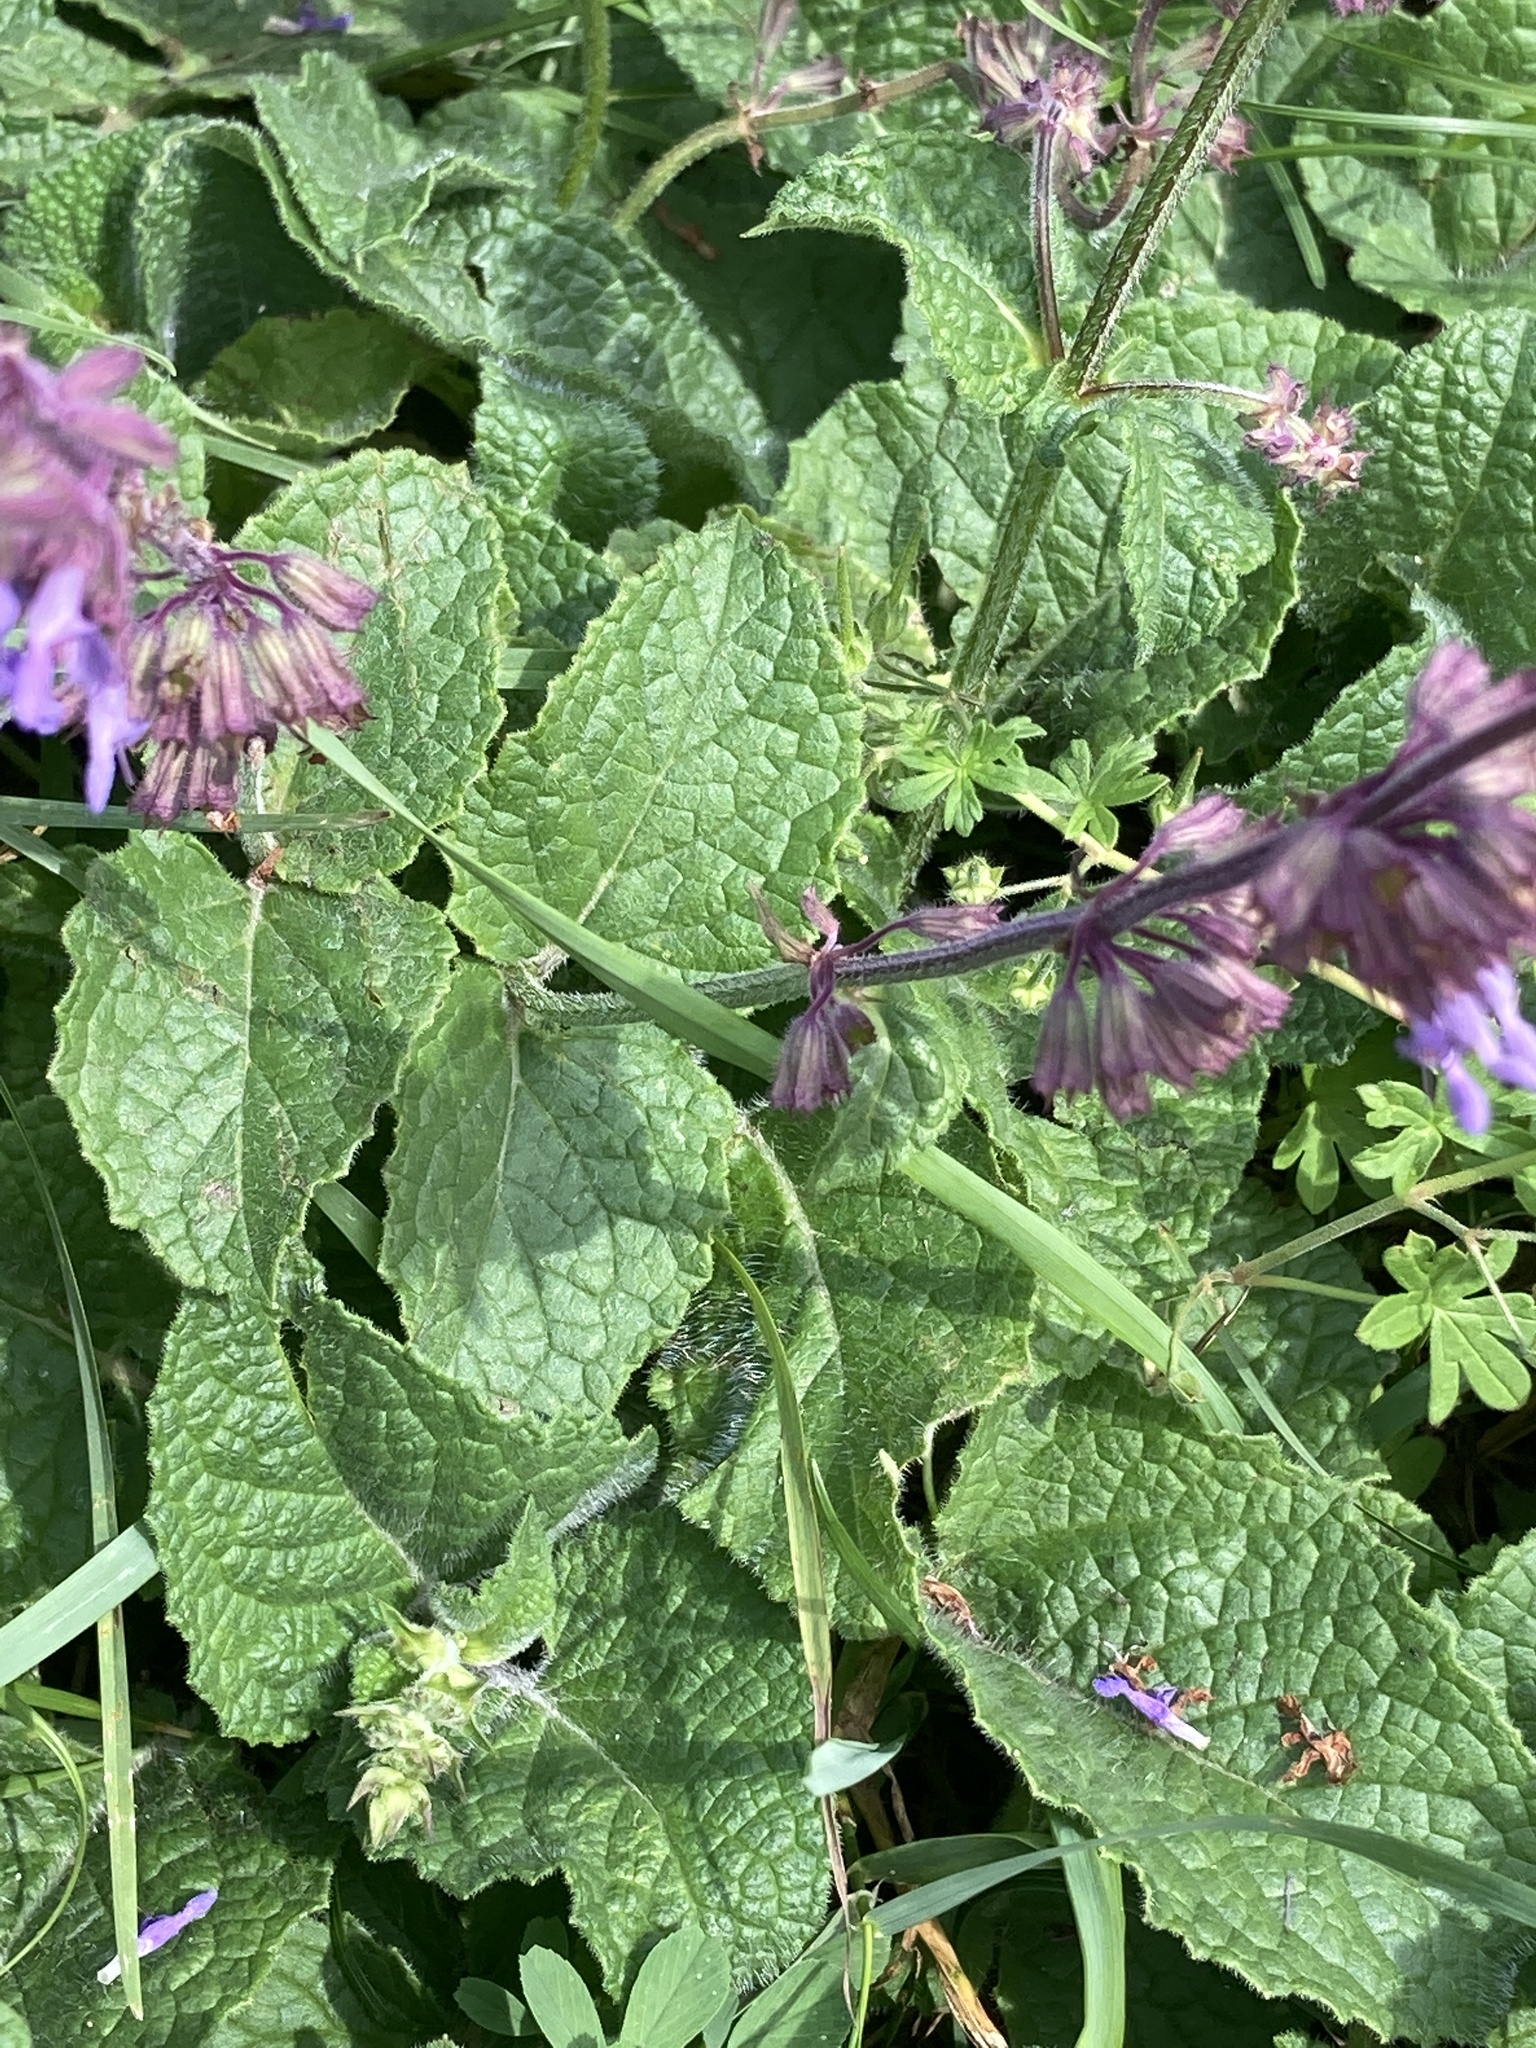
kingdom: Plantae
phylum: Tracheophyta
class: Magnoliopsida
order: Lamiales
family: Lamiaceae
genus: Salvia
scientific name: Salvia verticillata
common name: Whorled clary
